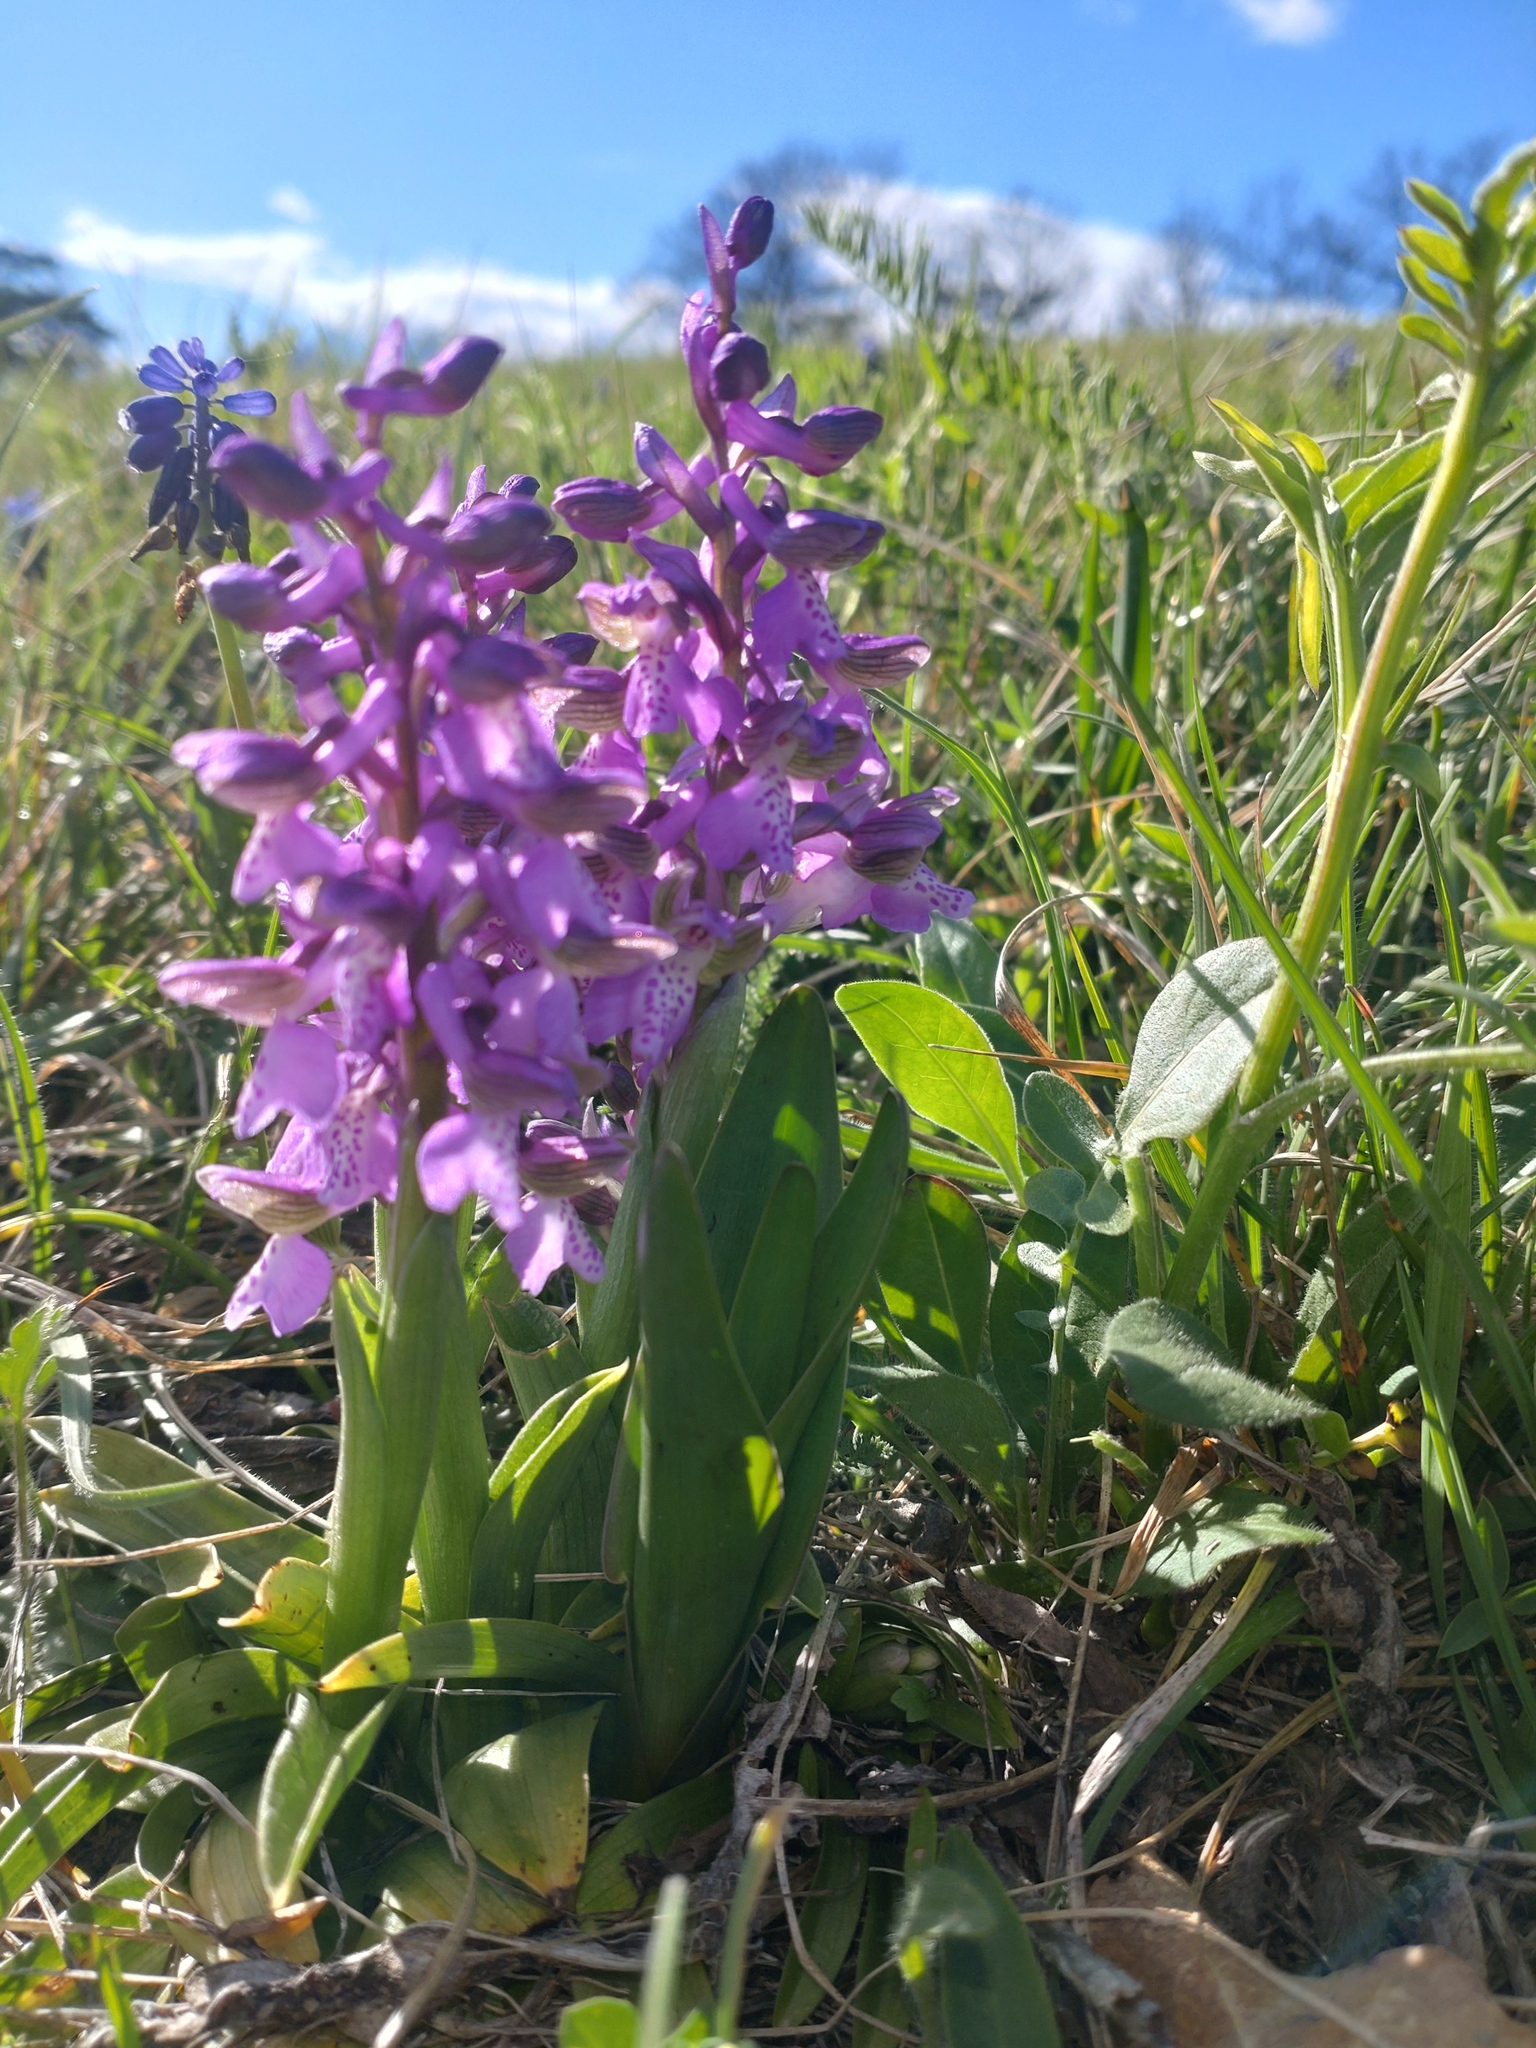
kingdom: Plantae
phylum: Tracheophyta
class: Liliopsida
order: Asparagales
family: Orchidaceae
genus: Anacamptis
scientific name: Anacamptis morio
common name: Green-winged orchid
